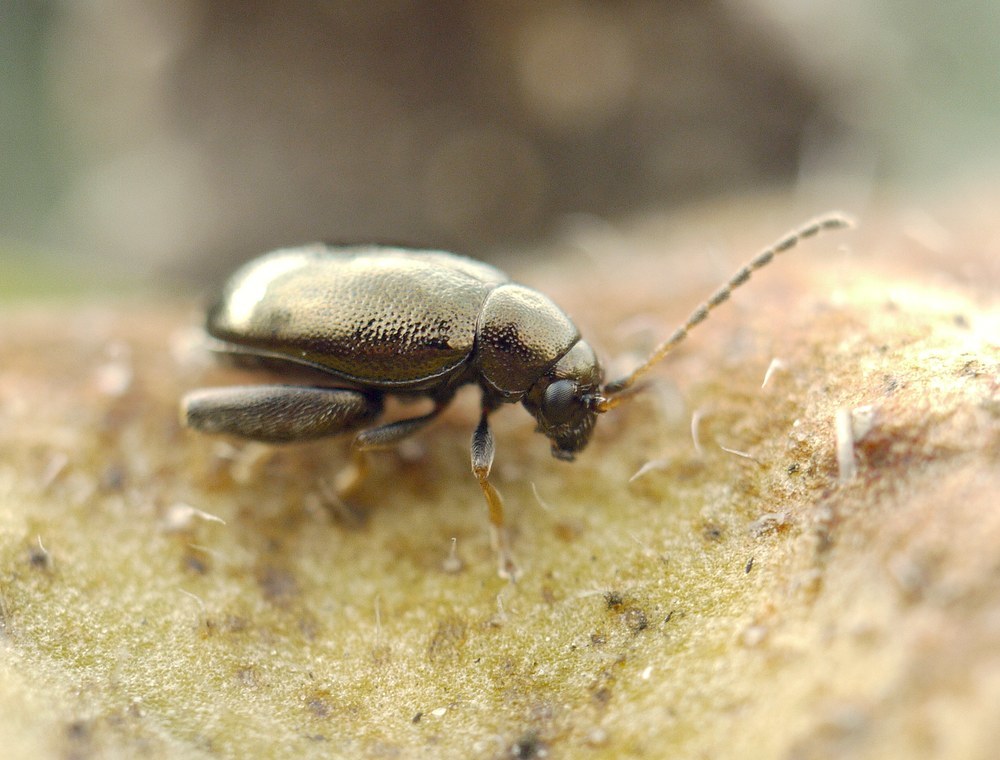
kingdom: Animalia
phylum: Arthropoda
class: Insecta
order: Coleoptera
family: Chrysomelidae
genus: Longitarsus
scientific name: Longitarsus echii
